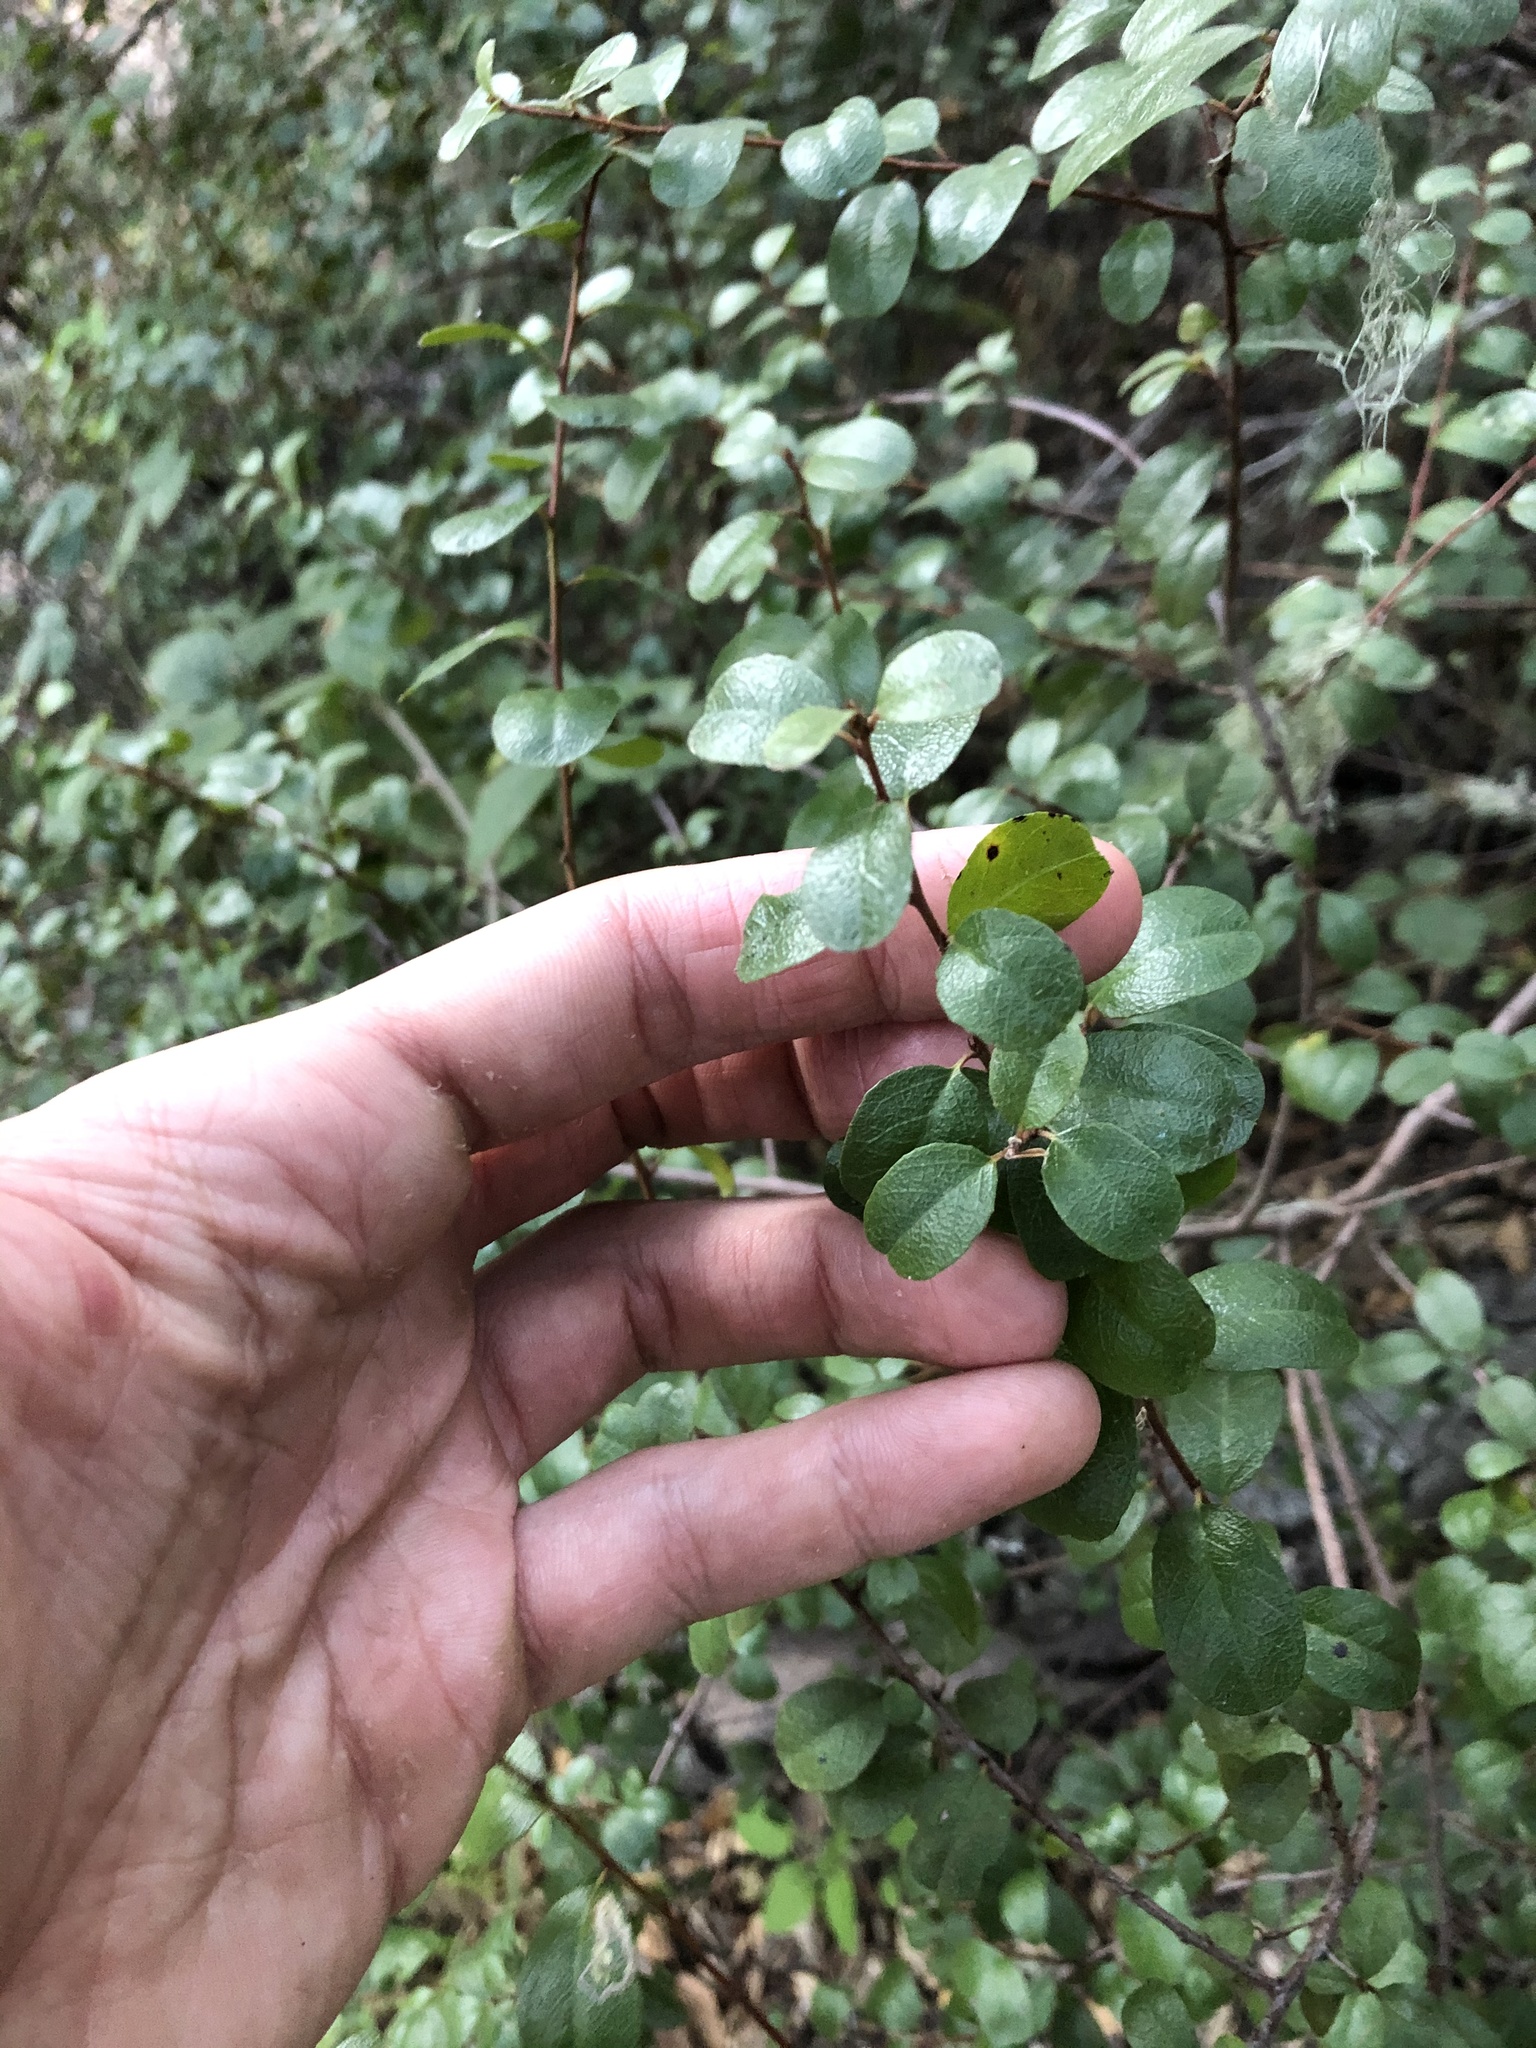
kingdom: Plantae
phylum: Tracheophyta
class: Magnoliopsida
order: Rosales
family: Rhamnaceae
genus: Endotropis
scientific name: Endotropis crocea
